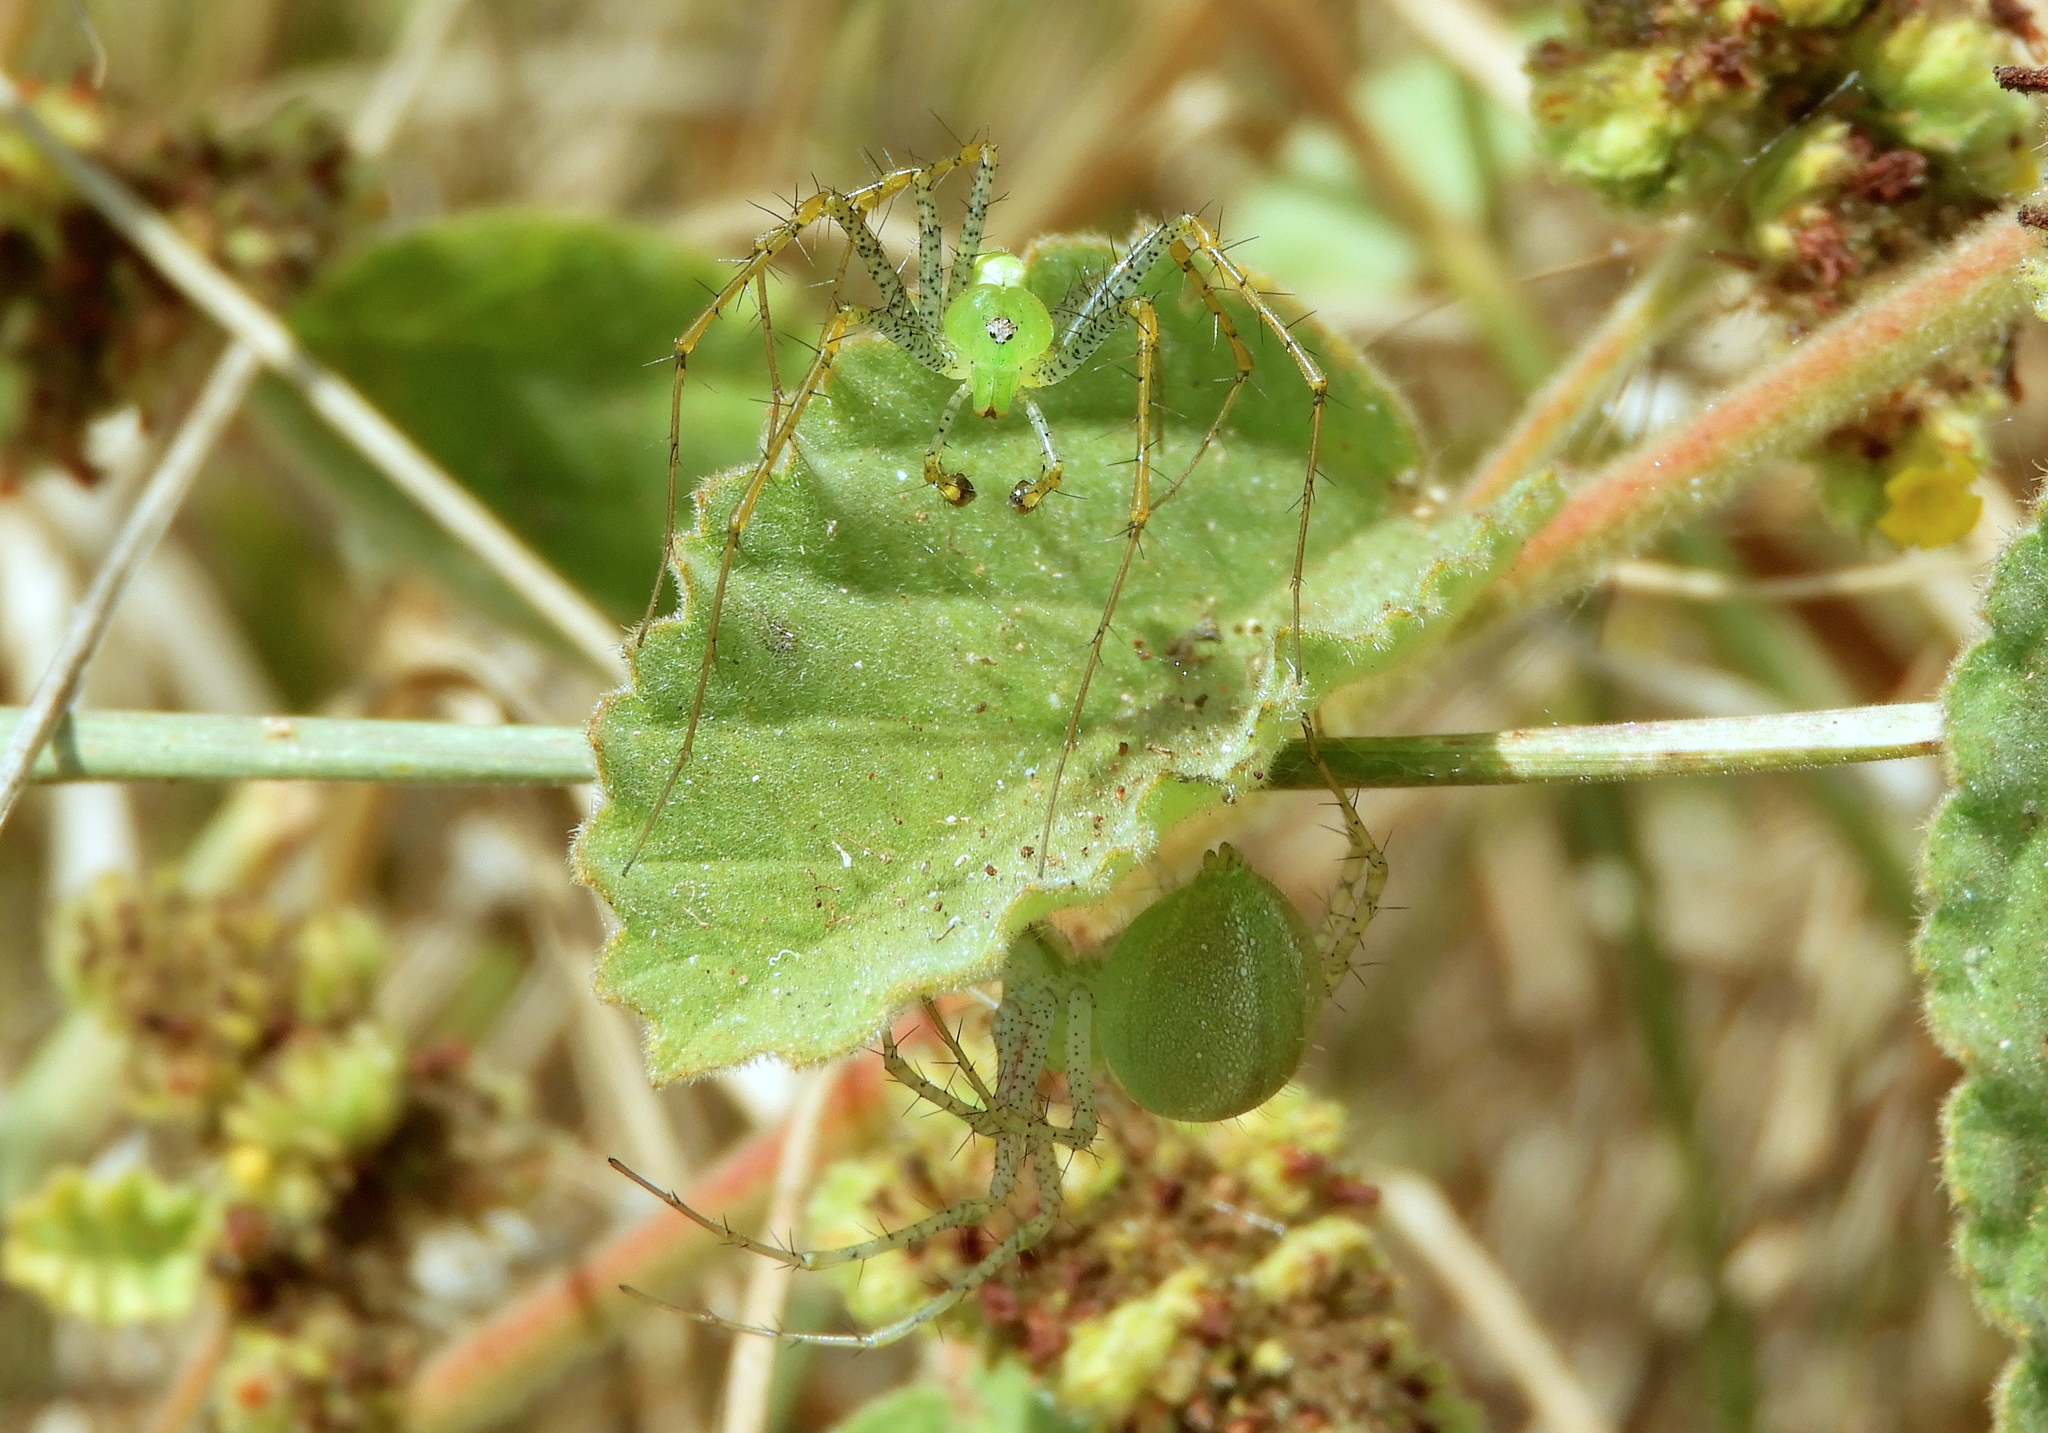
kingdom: Animalia
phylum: Arthropoda
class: Arachnida
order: Araneae
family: Oxyopidae
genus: Peucetia
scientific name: Peucetia longipalpis
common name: Lynx spiders
